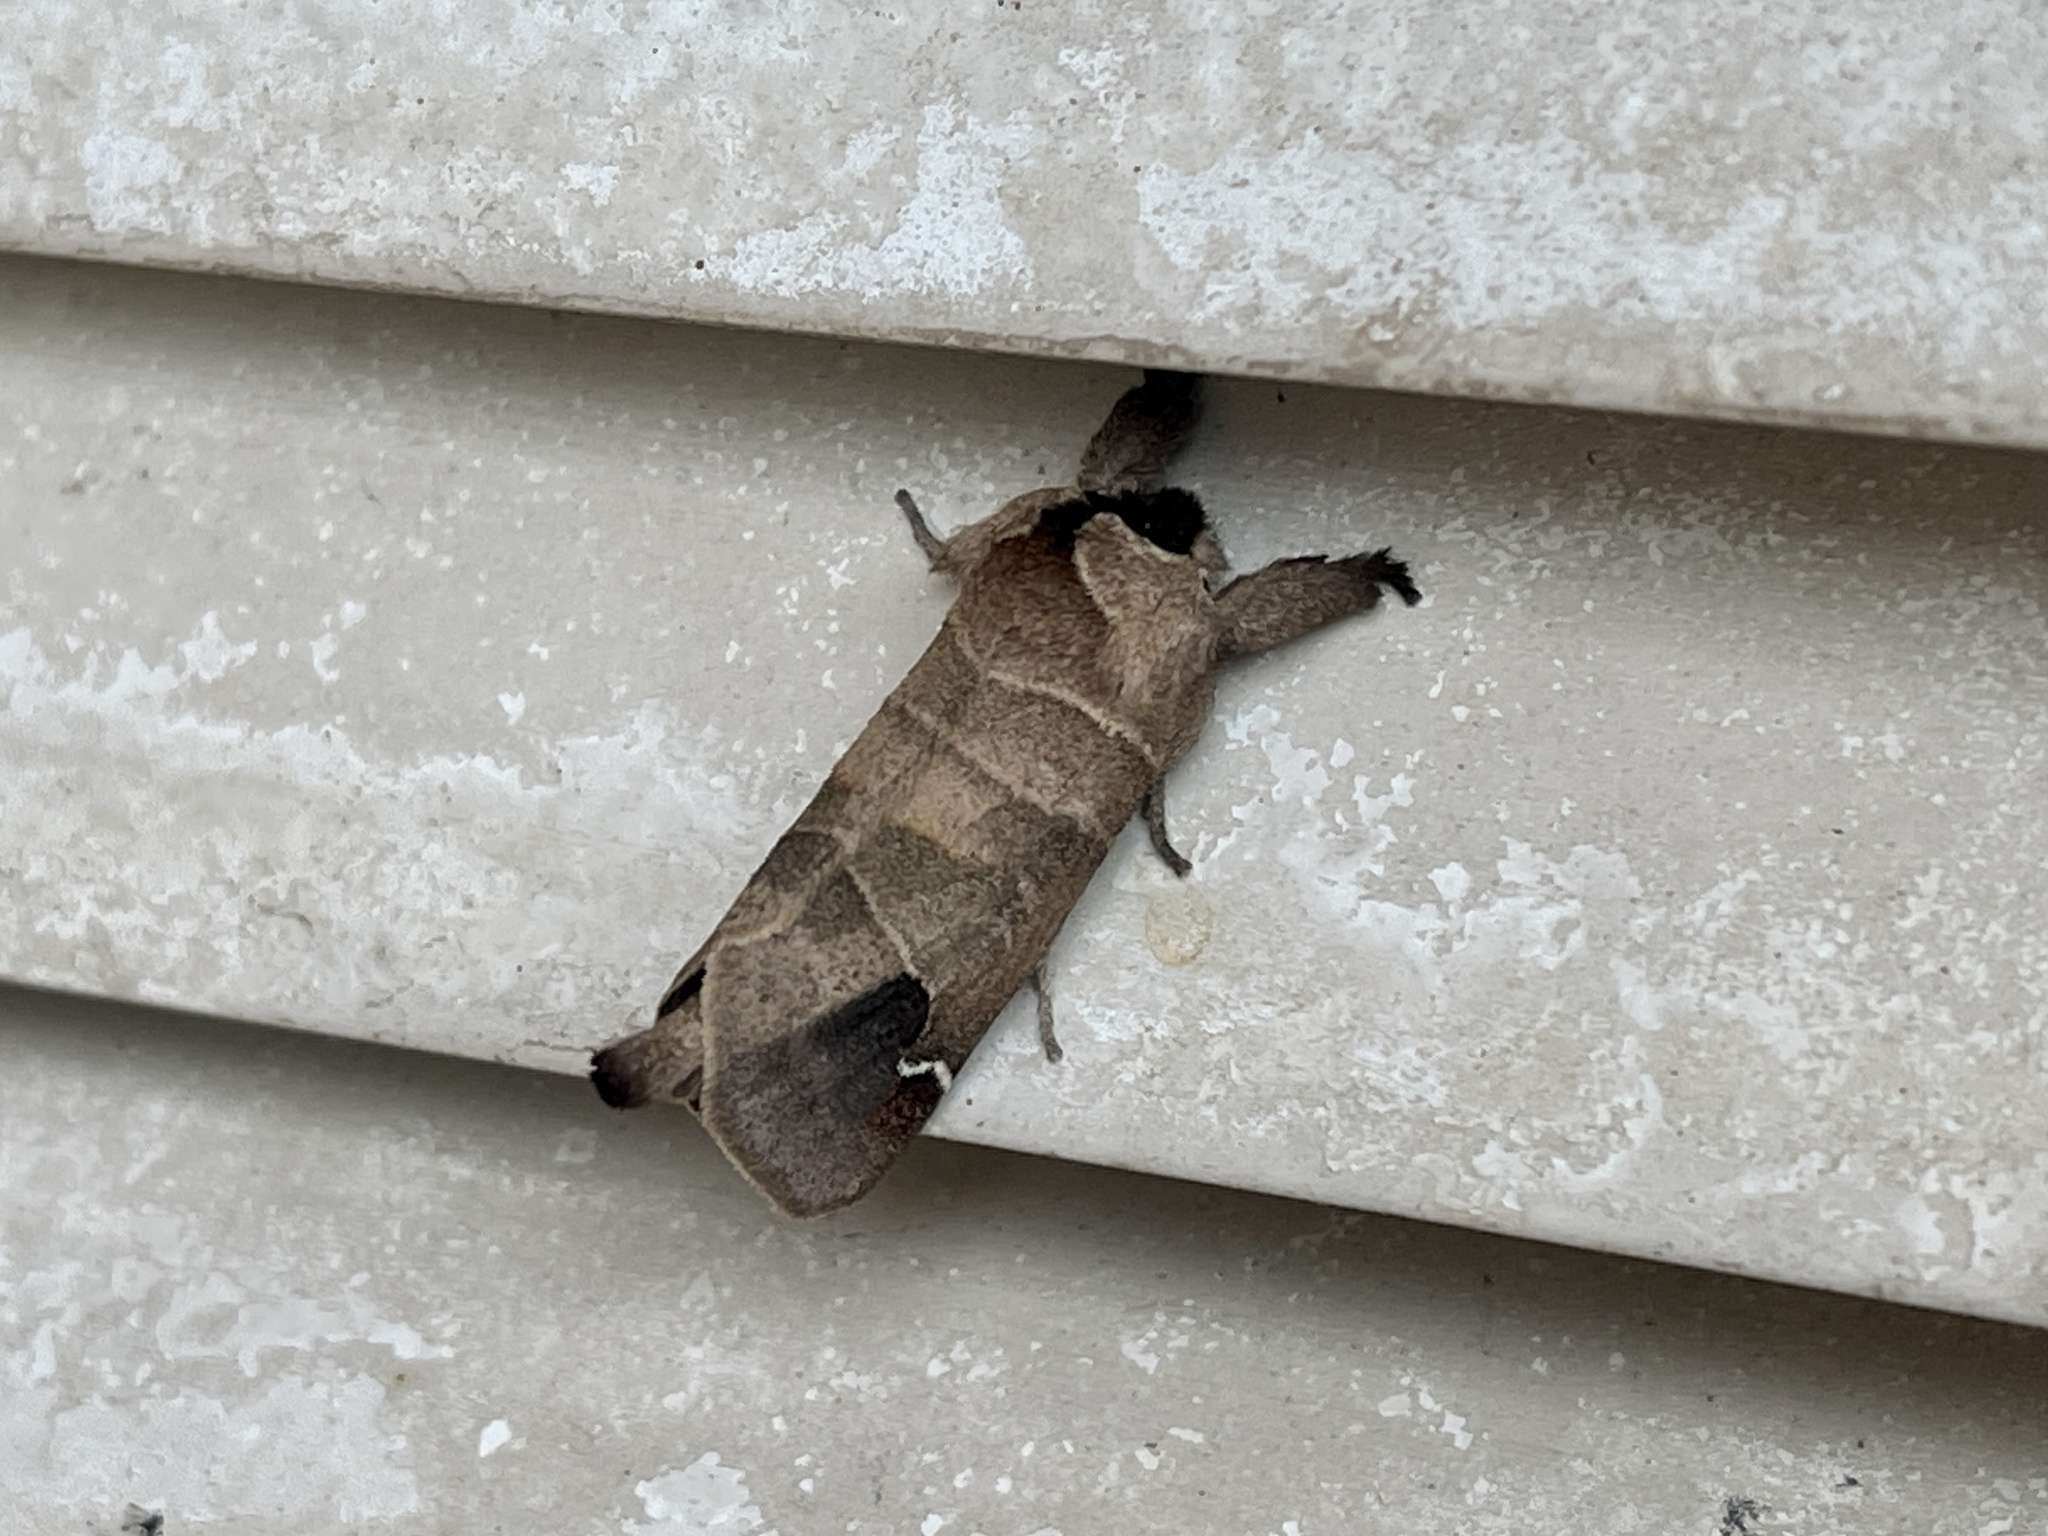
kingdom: Animalia
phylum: Arthropoda
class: Insecta
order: Lepidoptera
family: Notodontidae
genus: Clostera
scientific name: Clostera albosigma
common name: Sigmoid prominent
